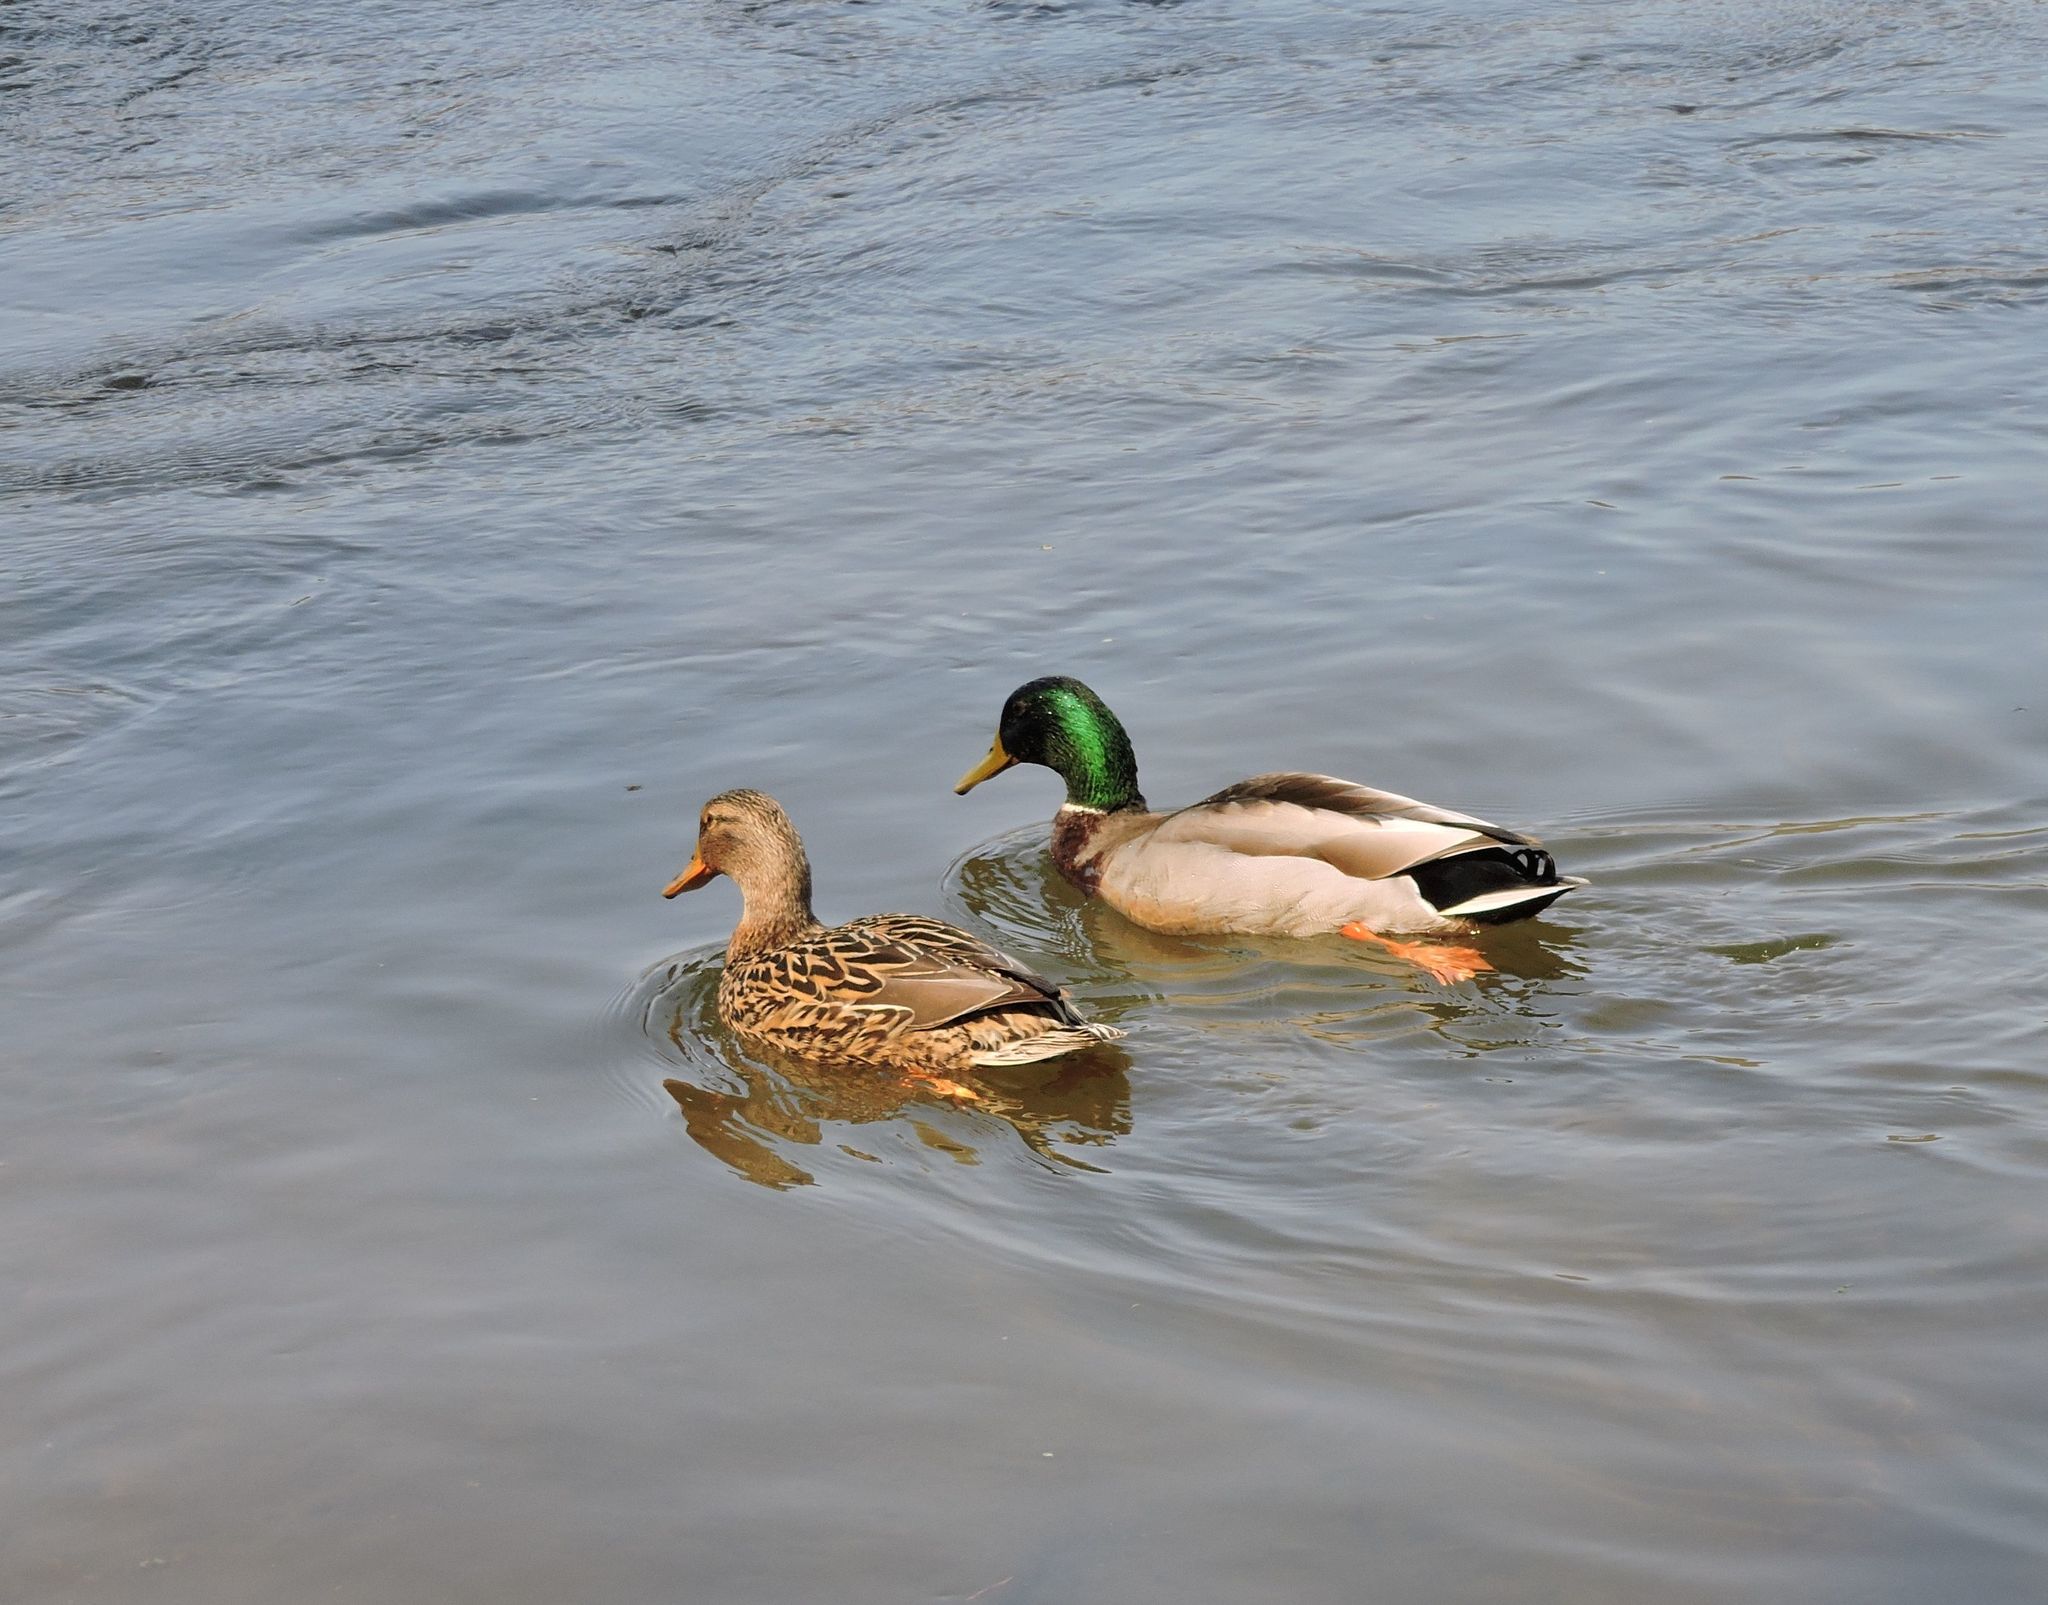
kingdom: Animalia
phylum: Chordata
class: Aves
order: Anseriformes
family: Anatidae
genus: Anas
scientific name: Anas platyrhynchos
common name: Mallard
